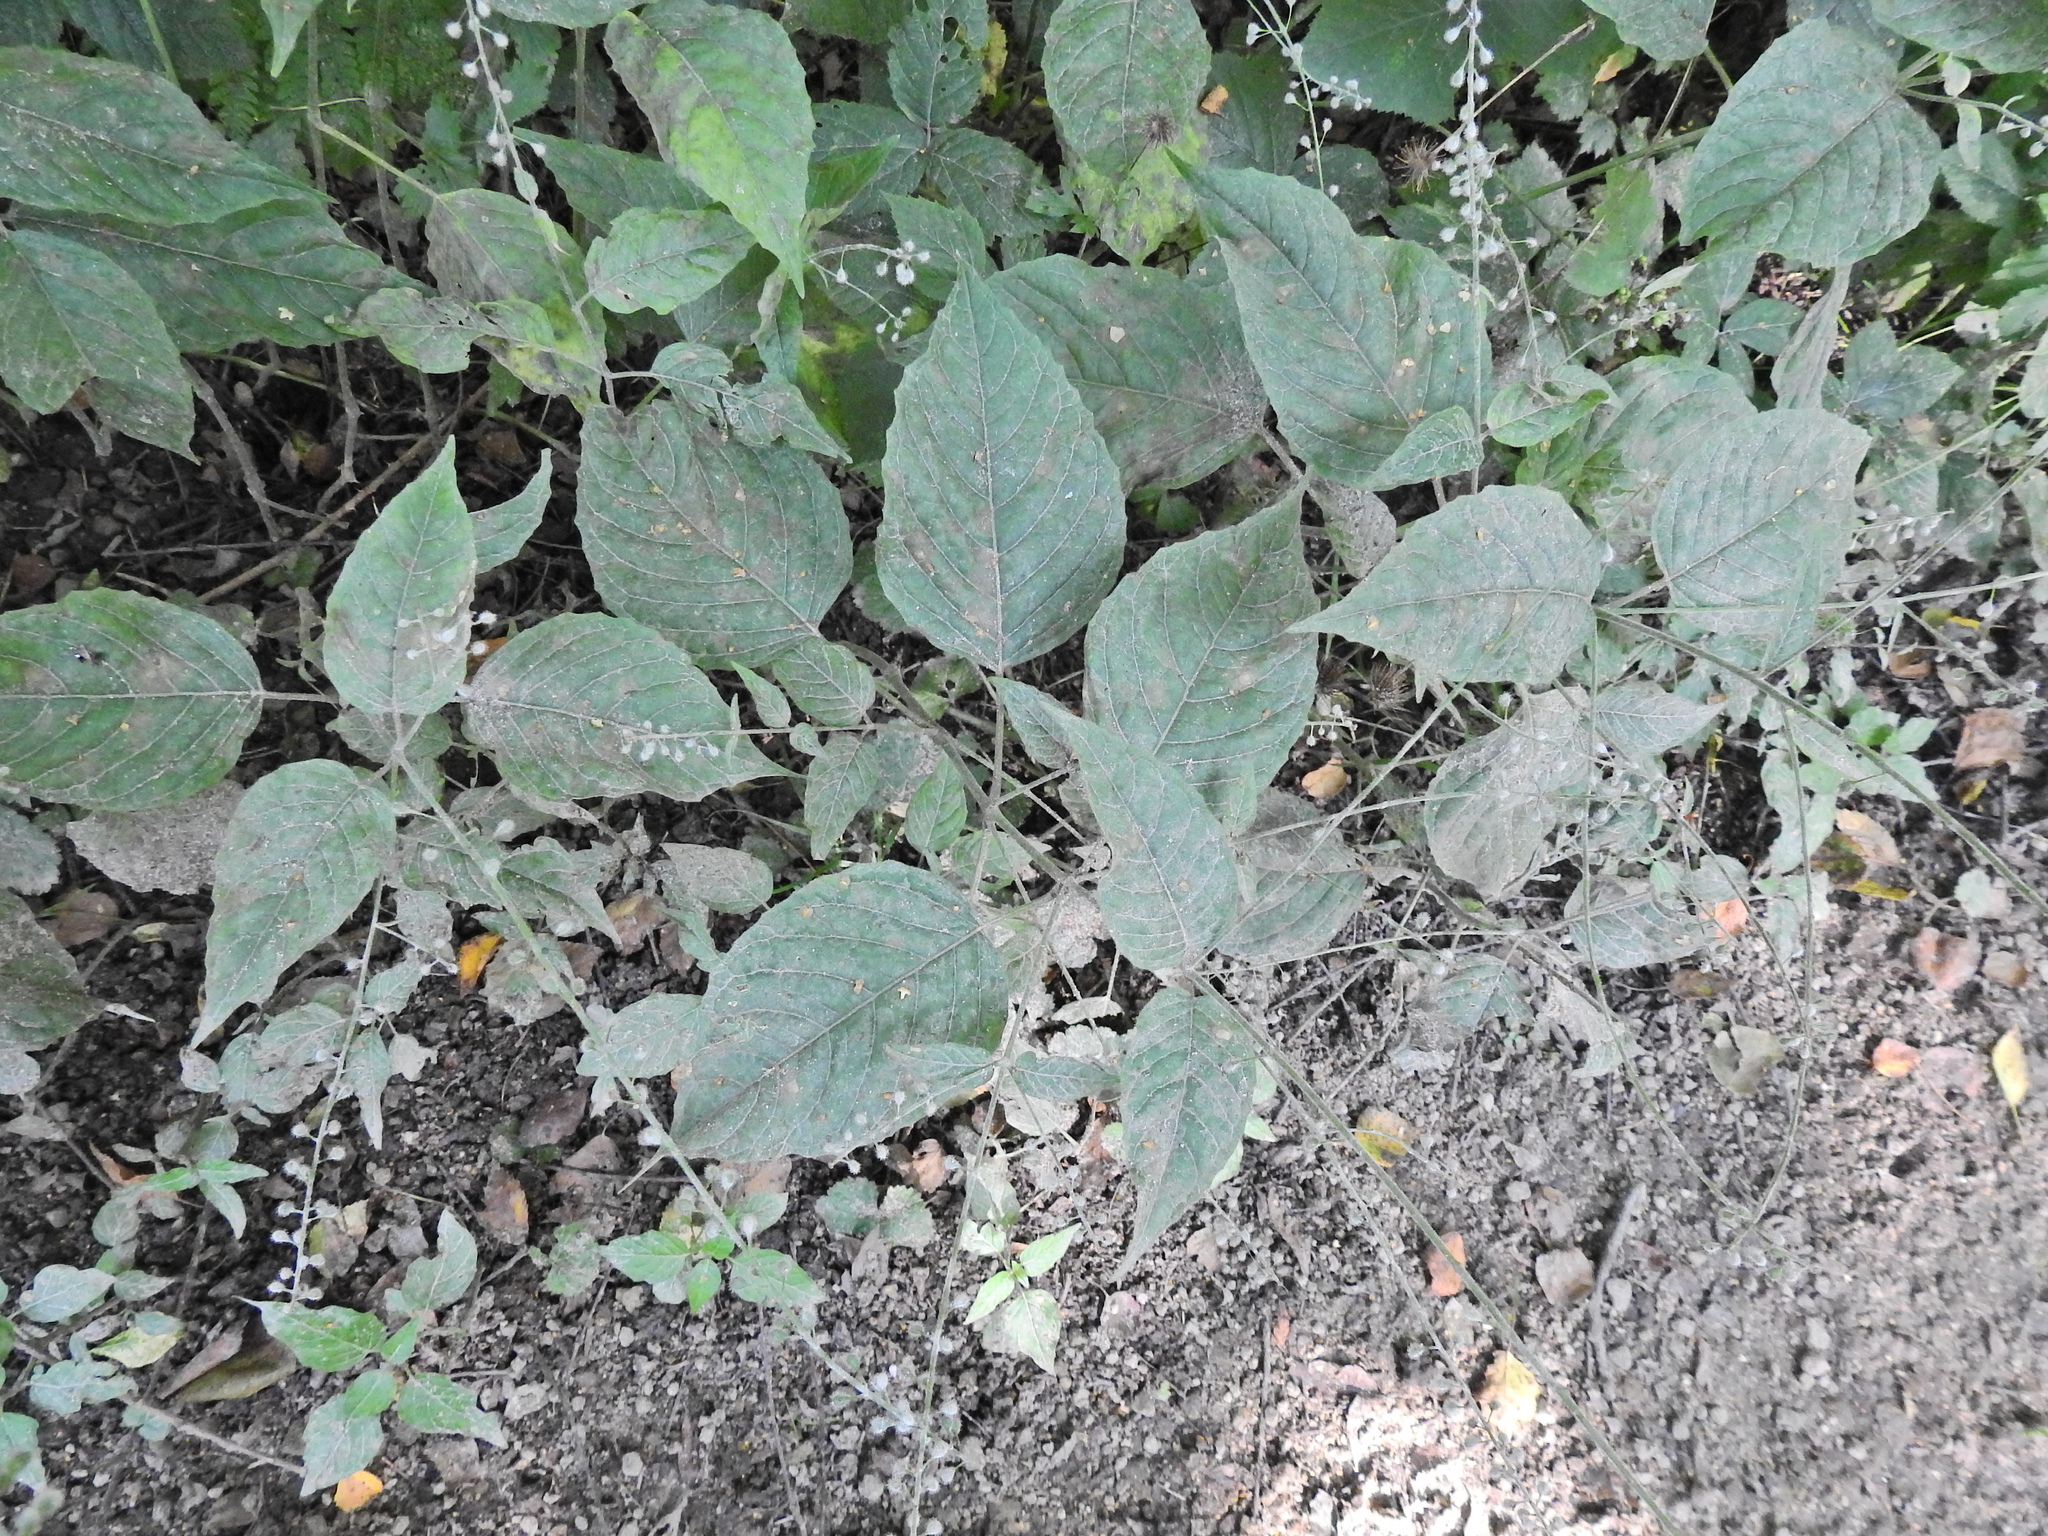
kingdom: Plantae
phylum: Tracheophyta
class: Magnoliopsida
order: Myrtales
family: Onagraceae
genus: Circaea
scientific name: Circaea lutetiana
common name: Enchanter's-nightshade
